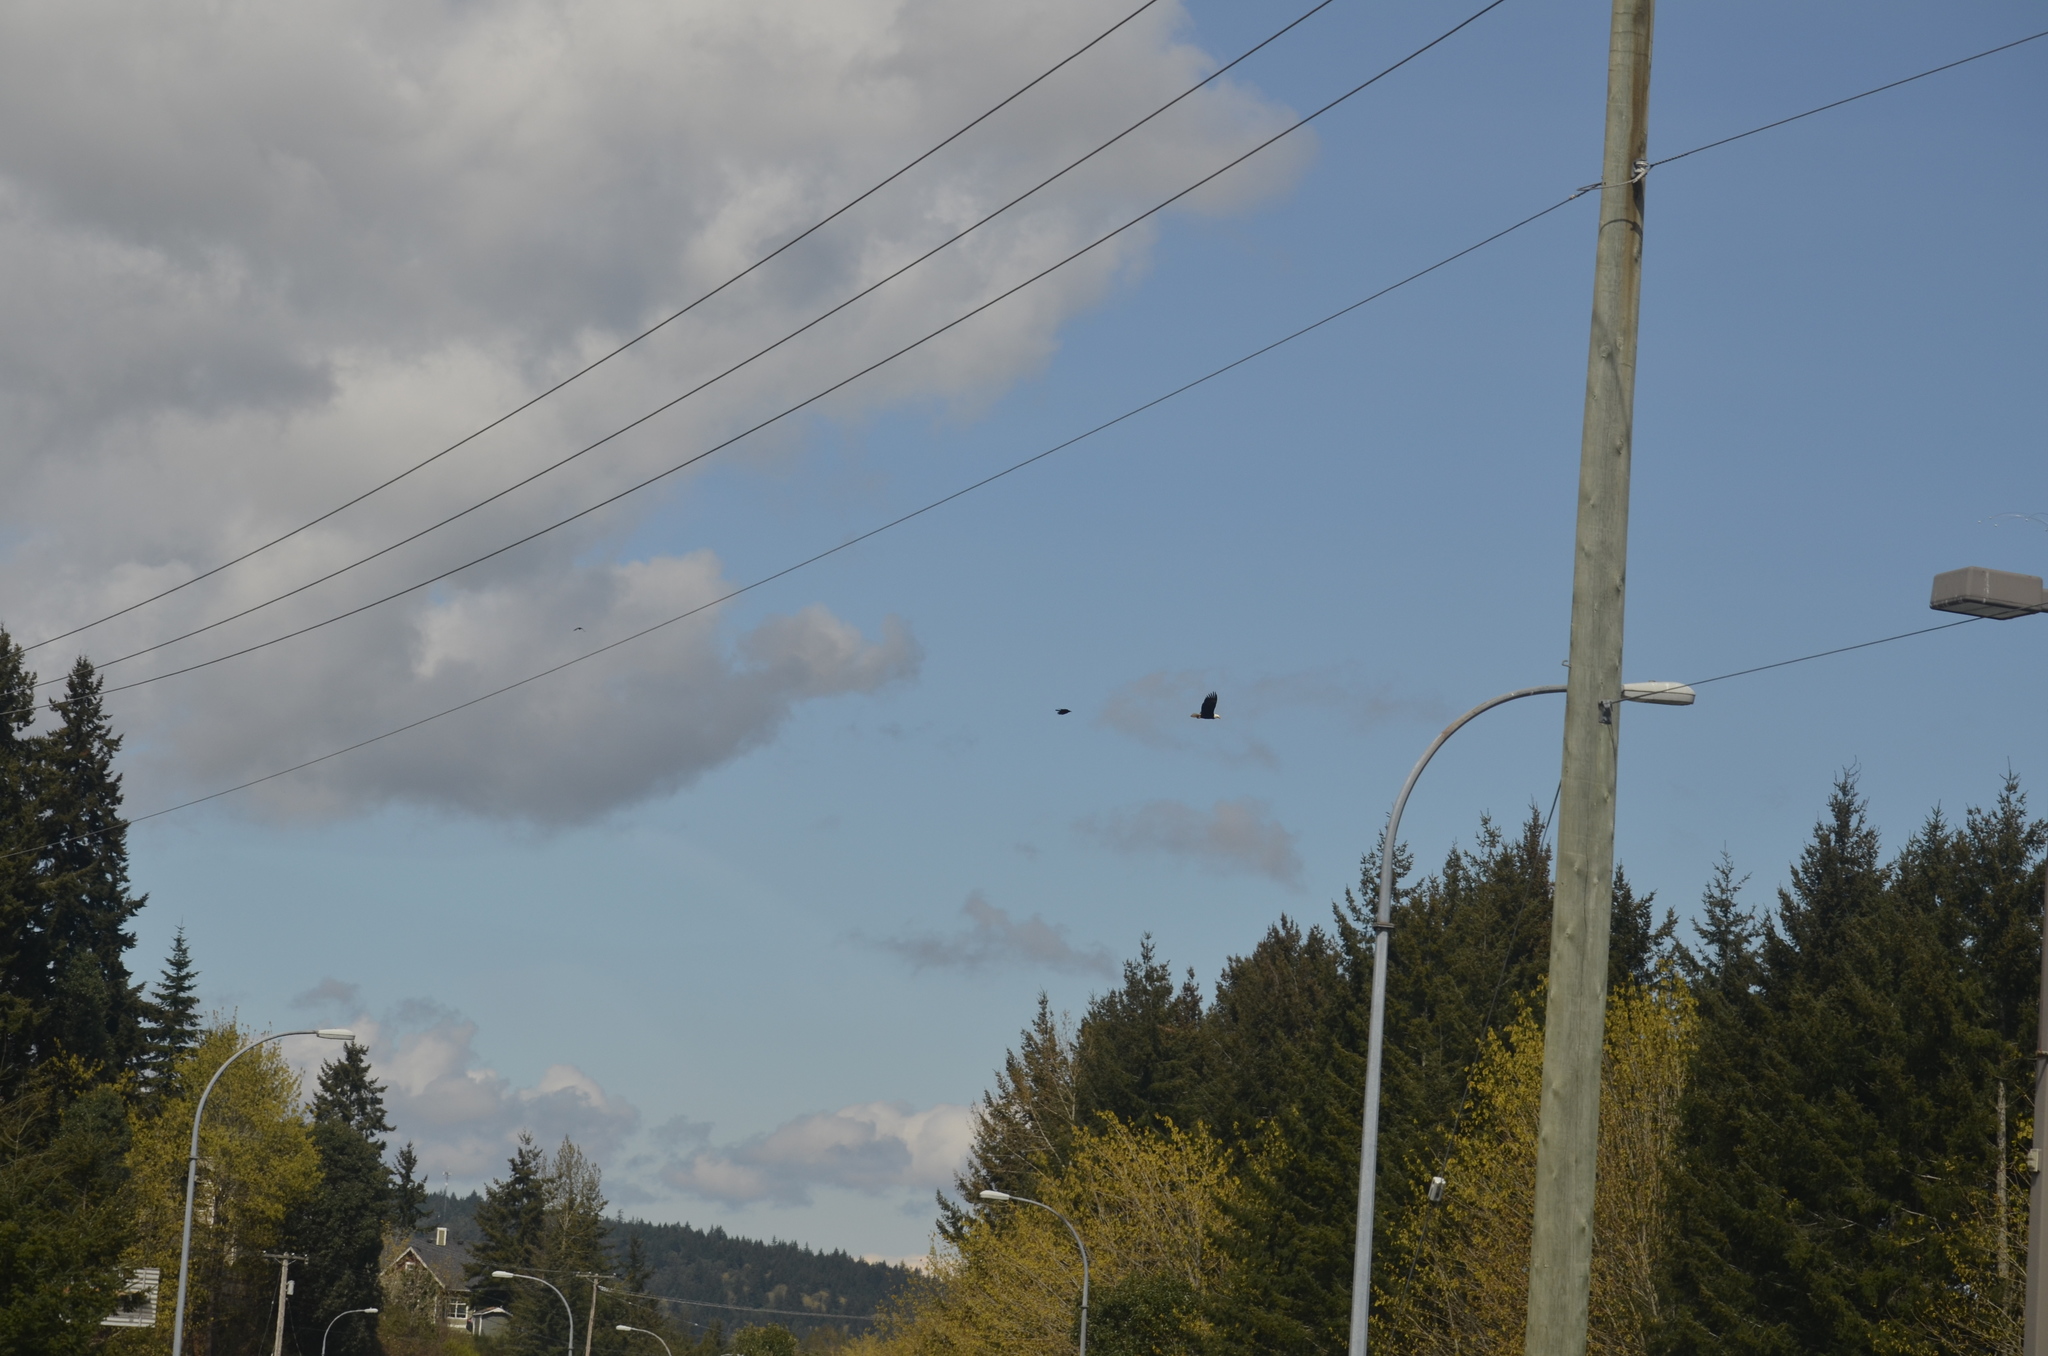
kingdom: Animalia
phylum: Chordata
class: Aves
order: Passeriformes
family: Corvidae
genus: Corvus
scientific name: Corvus brachyrhynchos
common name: American crow
